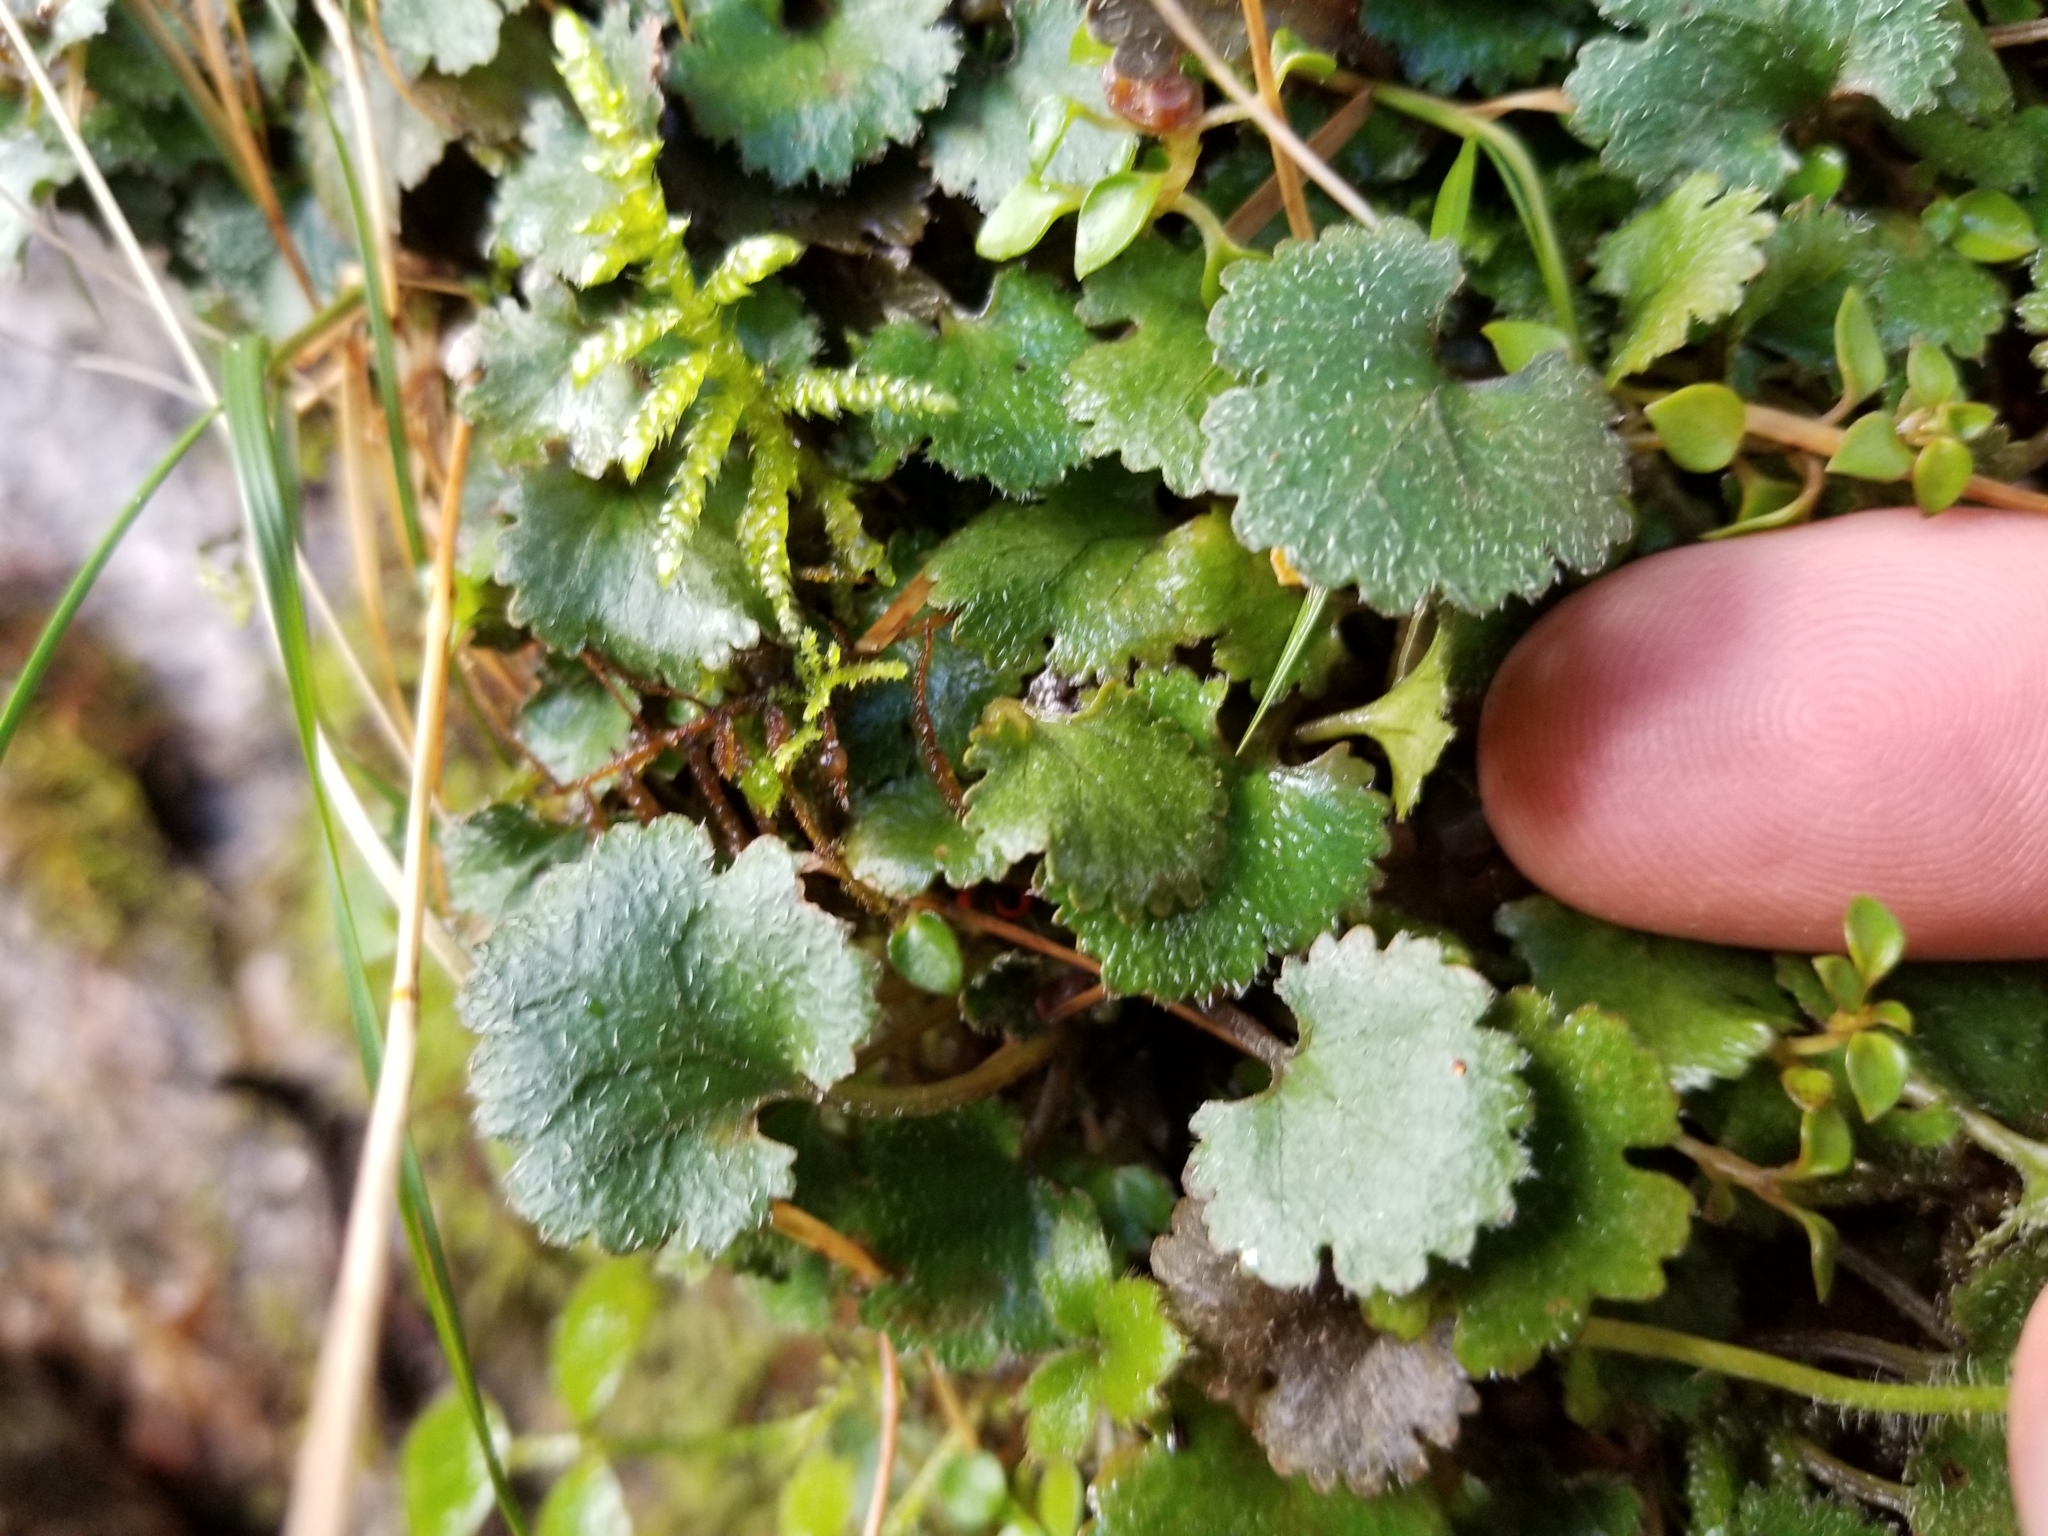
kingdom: Plantae
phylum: Tracheophyta
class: Magnoliopsida
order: Gunnerales
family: Gunneraceae
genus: Gunnera
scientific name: Gunnera monoica
